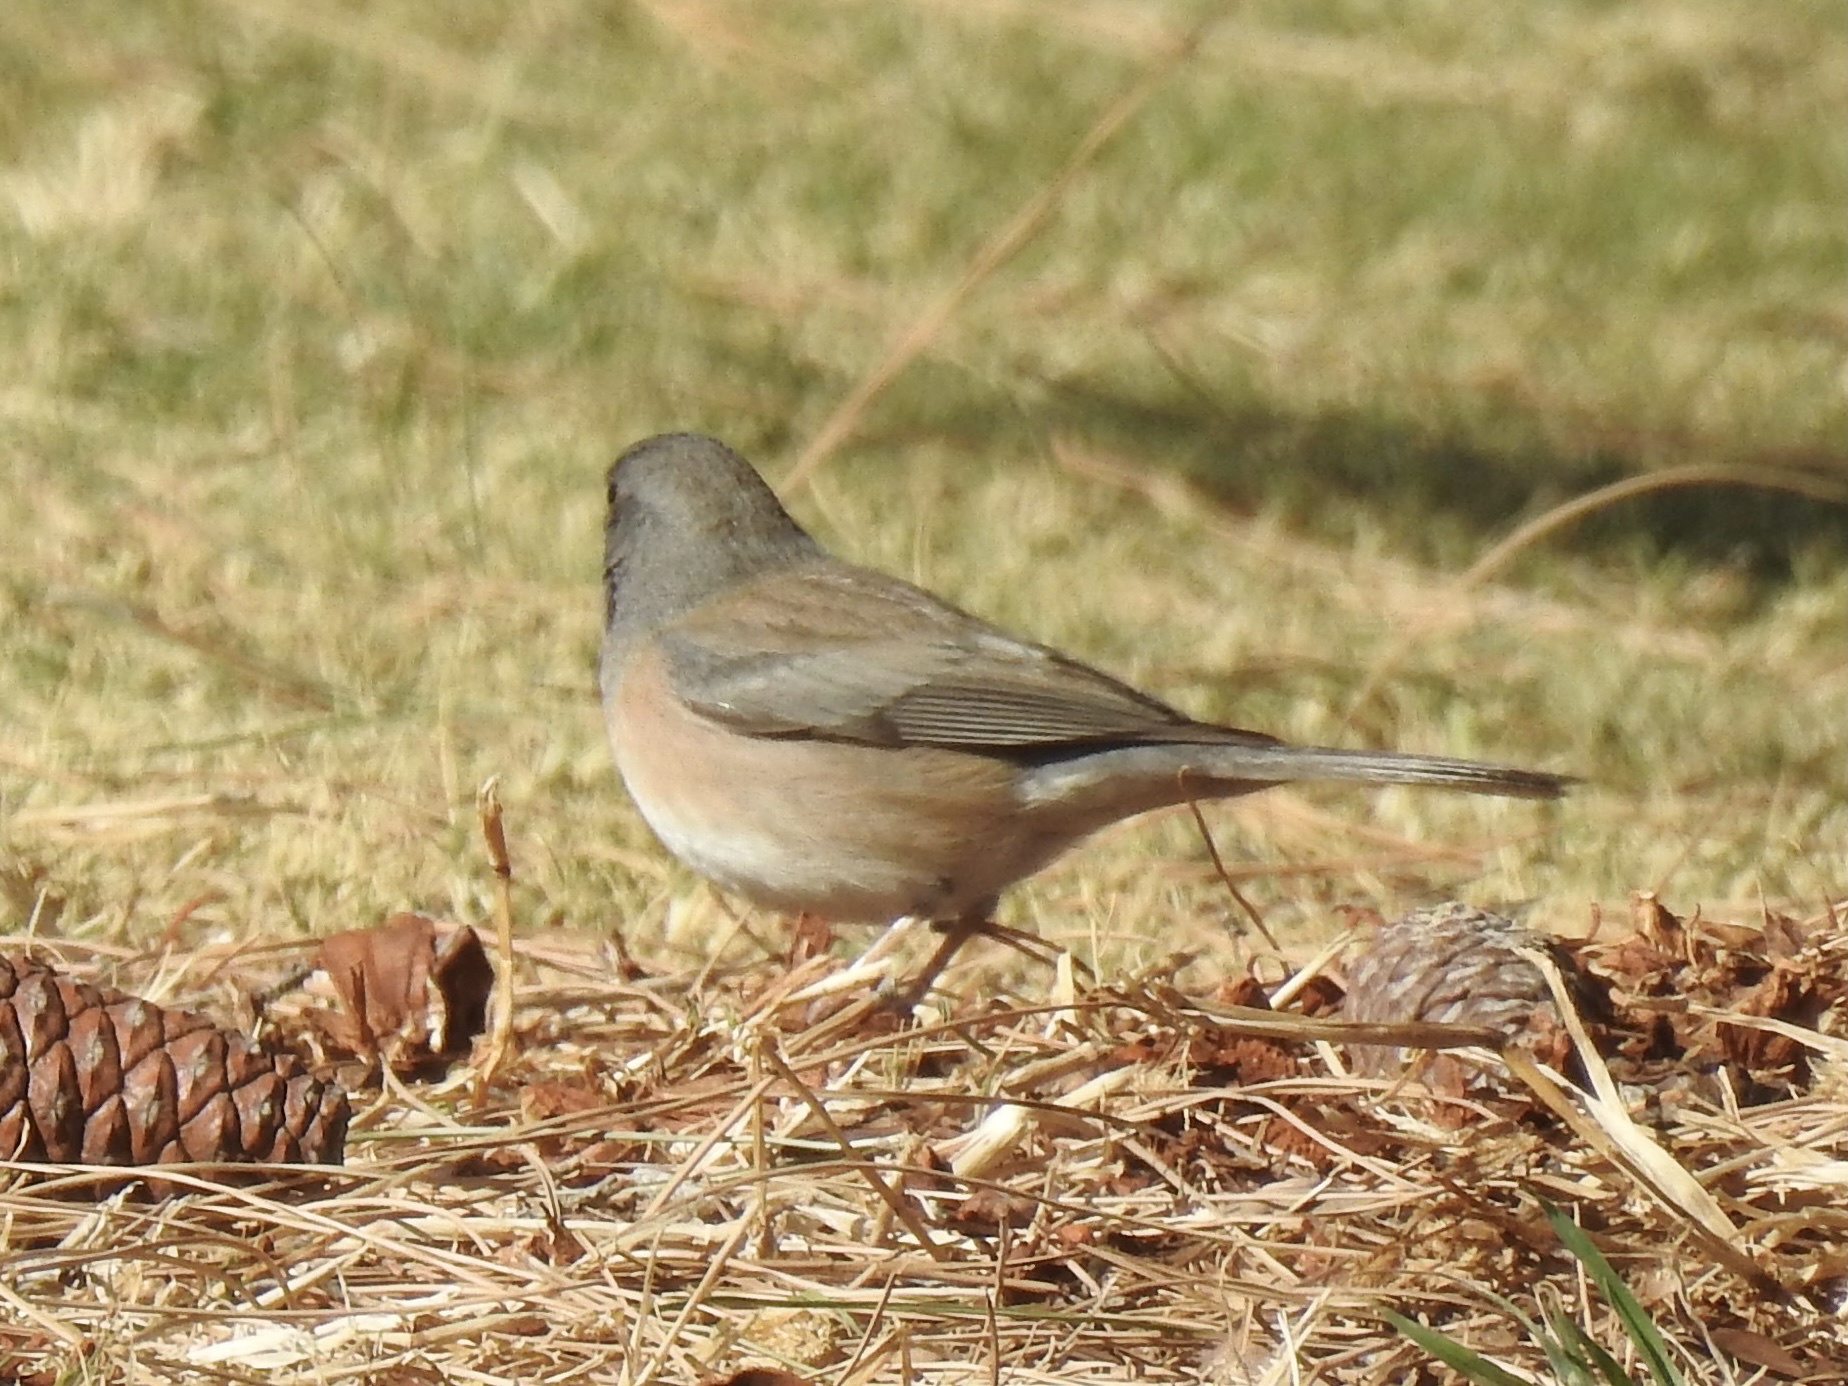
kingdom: Animalia
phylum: Chordata
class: Aves
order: Passeriformes
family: Passerellidae
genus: Junco
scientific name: Junco hyemalis
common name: Dark-eyed junco
